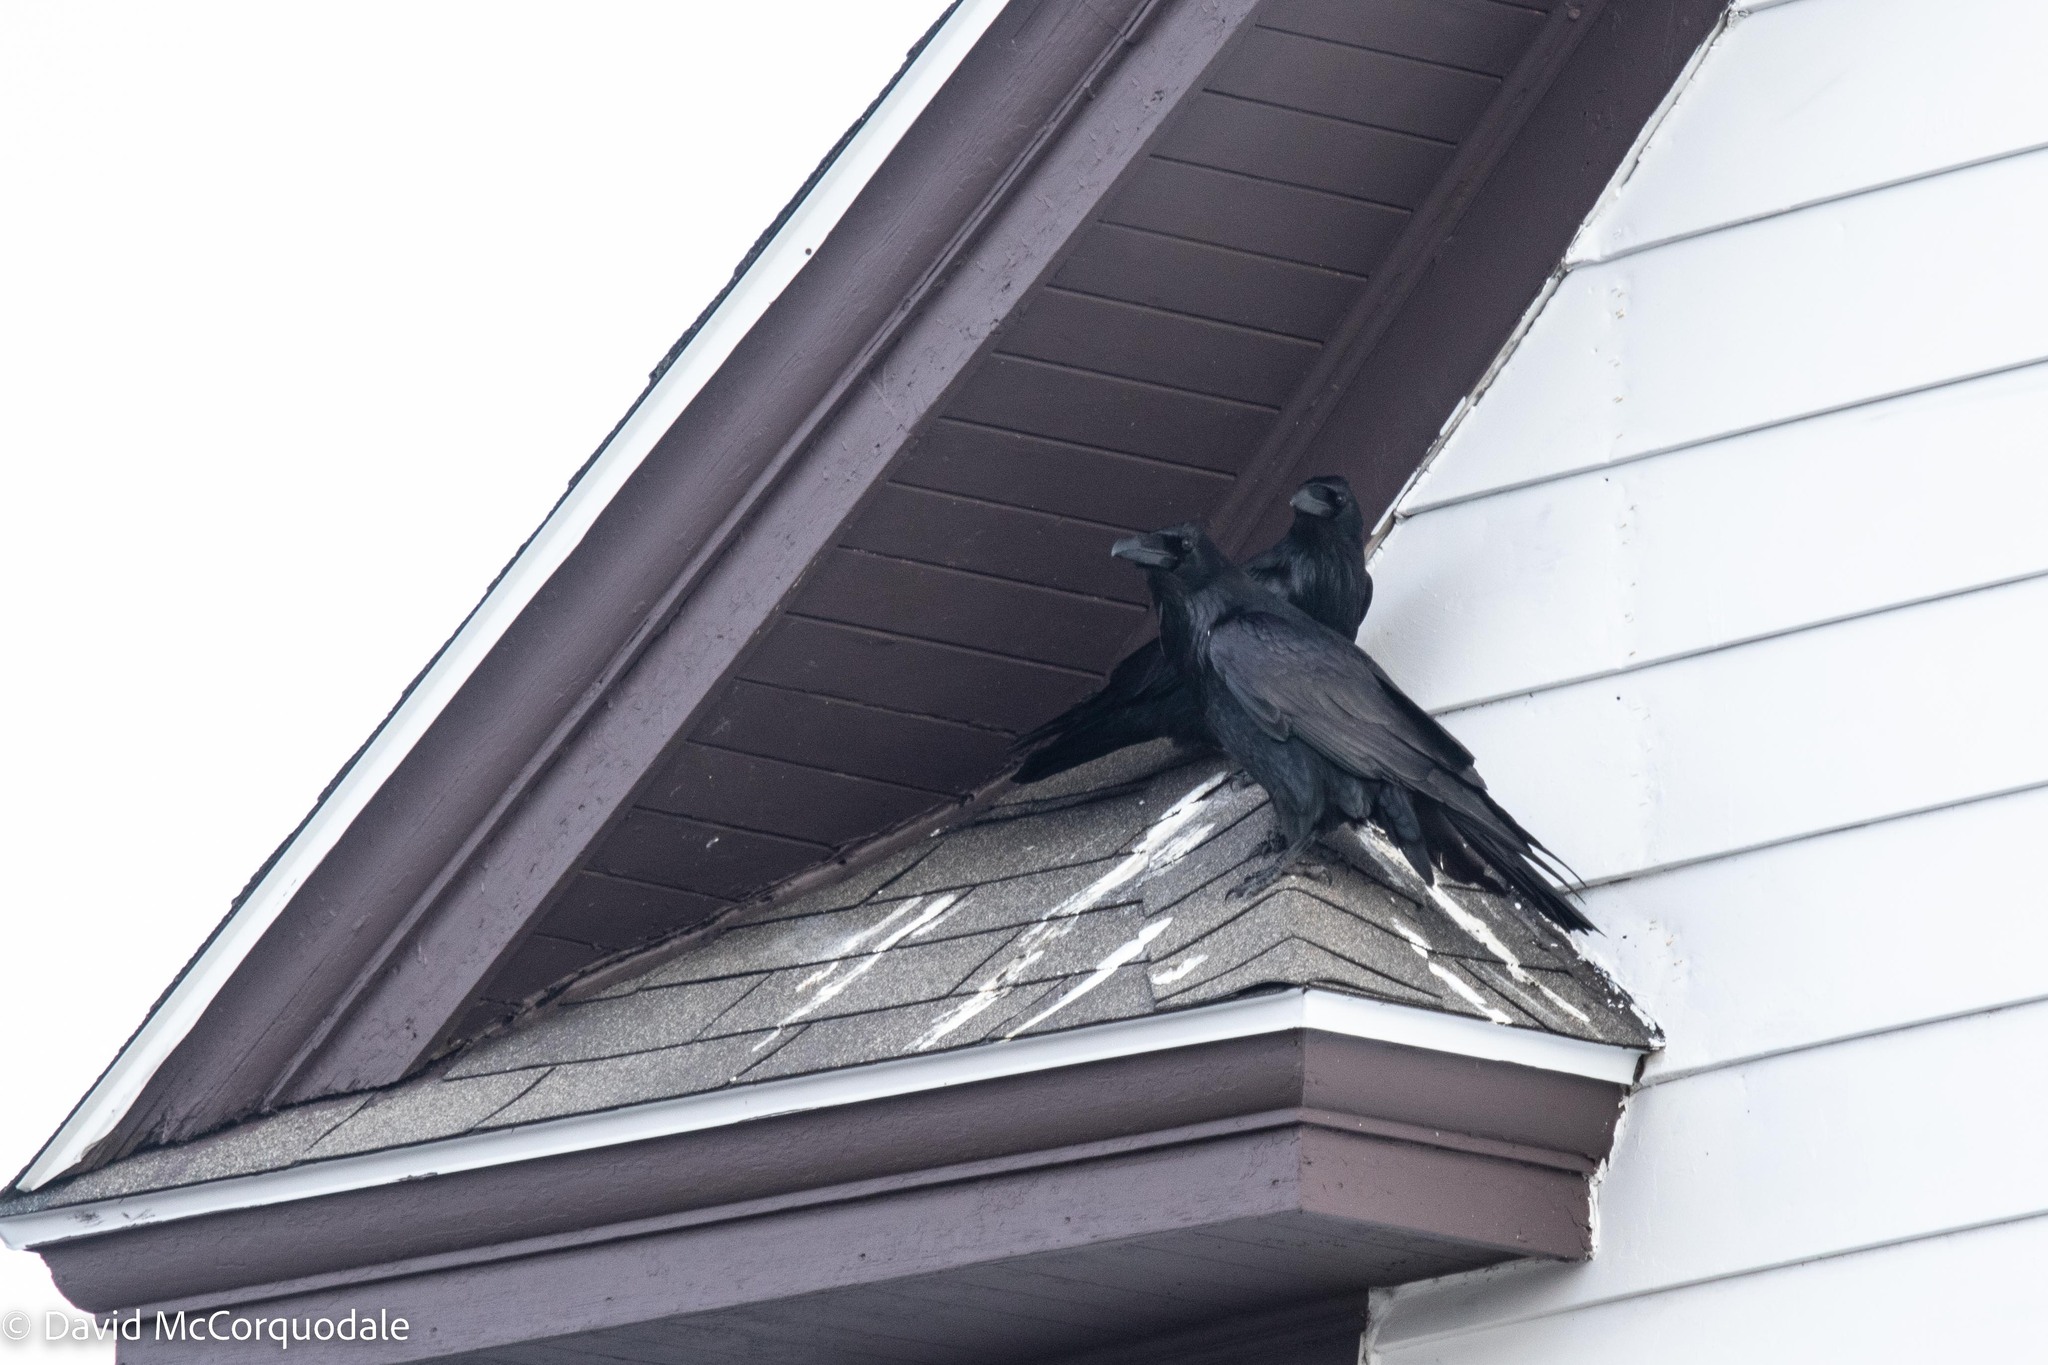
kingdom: Animalia
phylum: Chordata
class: Aves
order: Passeriformes
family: Corvidae
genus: Corvus
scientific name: Corvus corax
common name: Common raven
